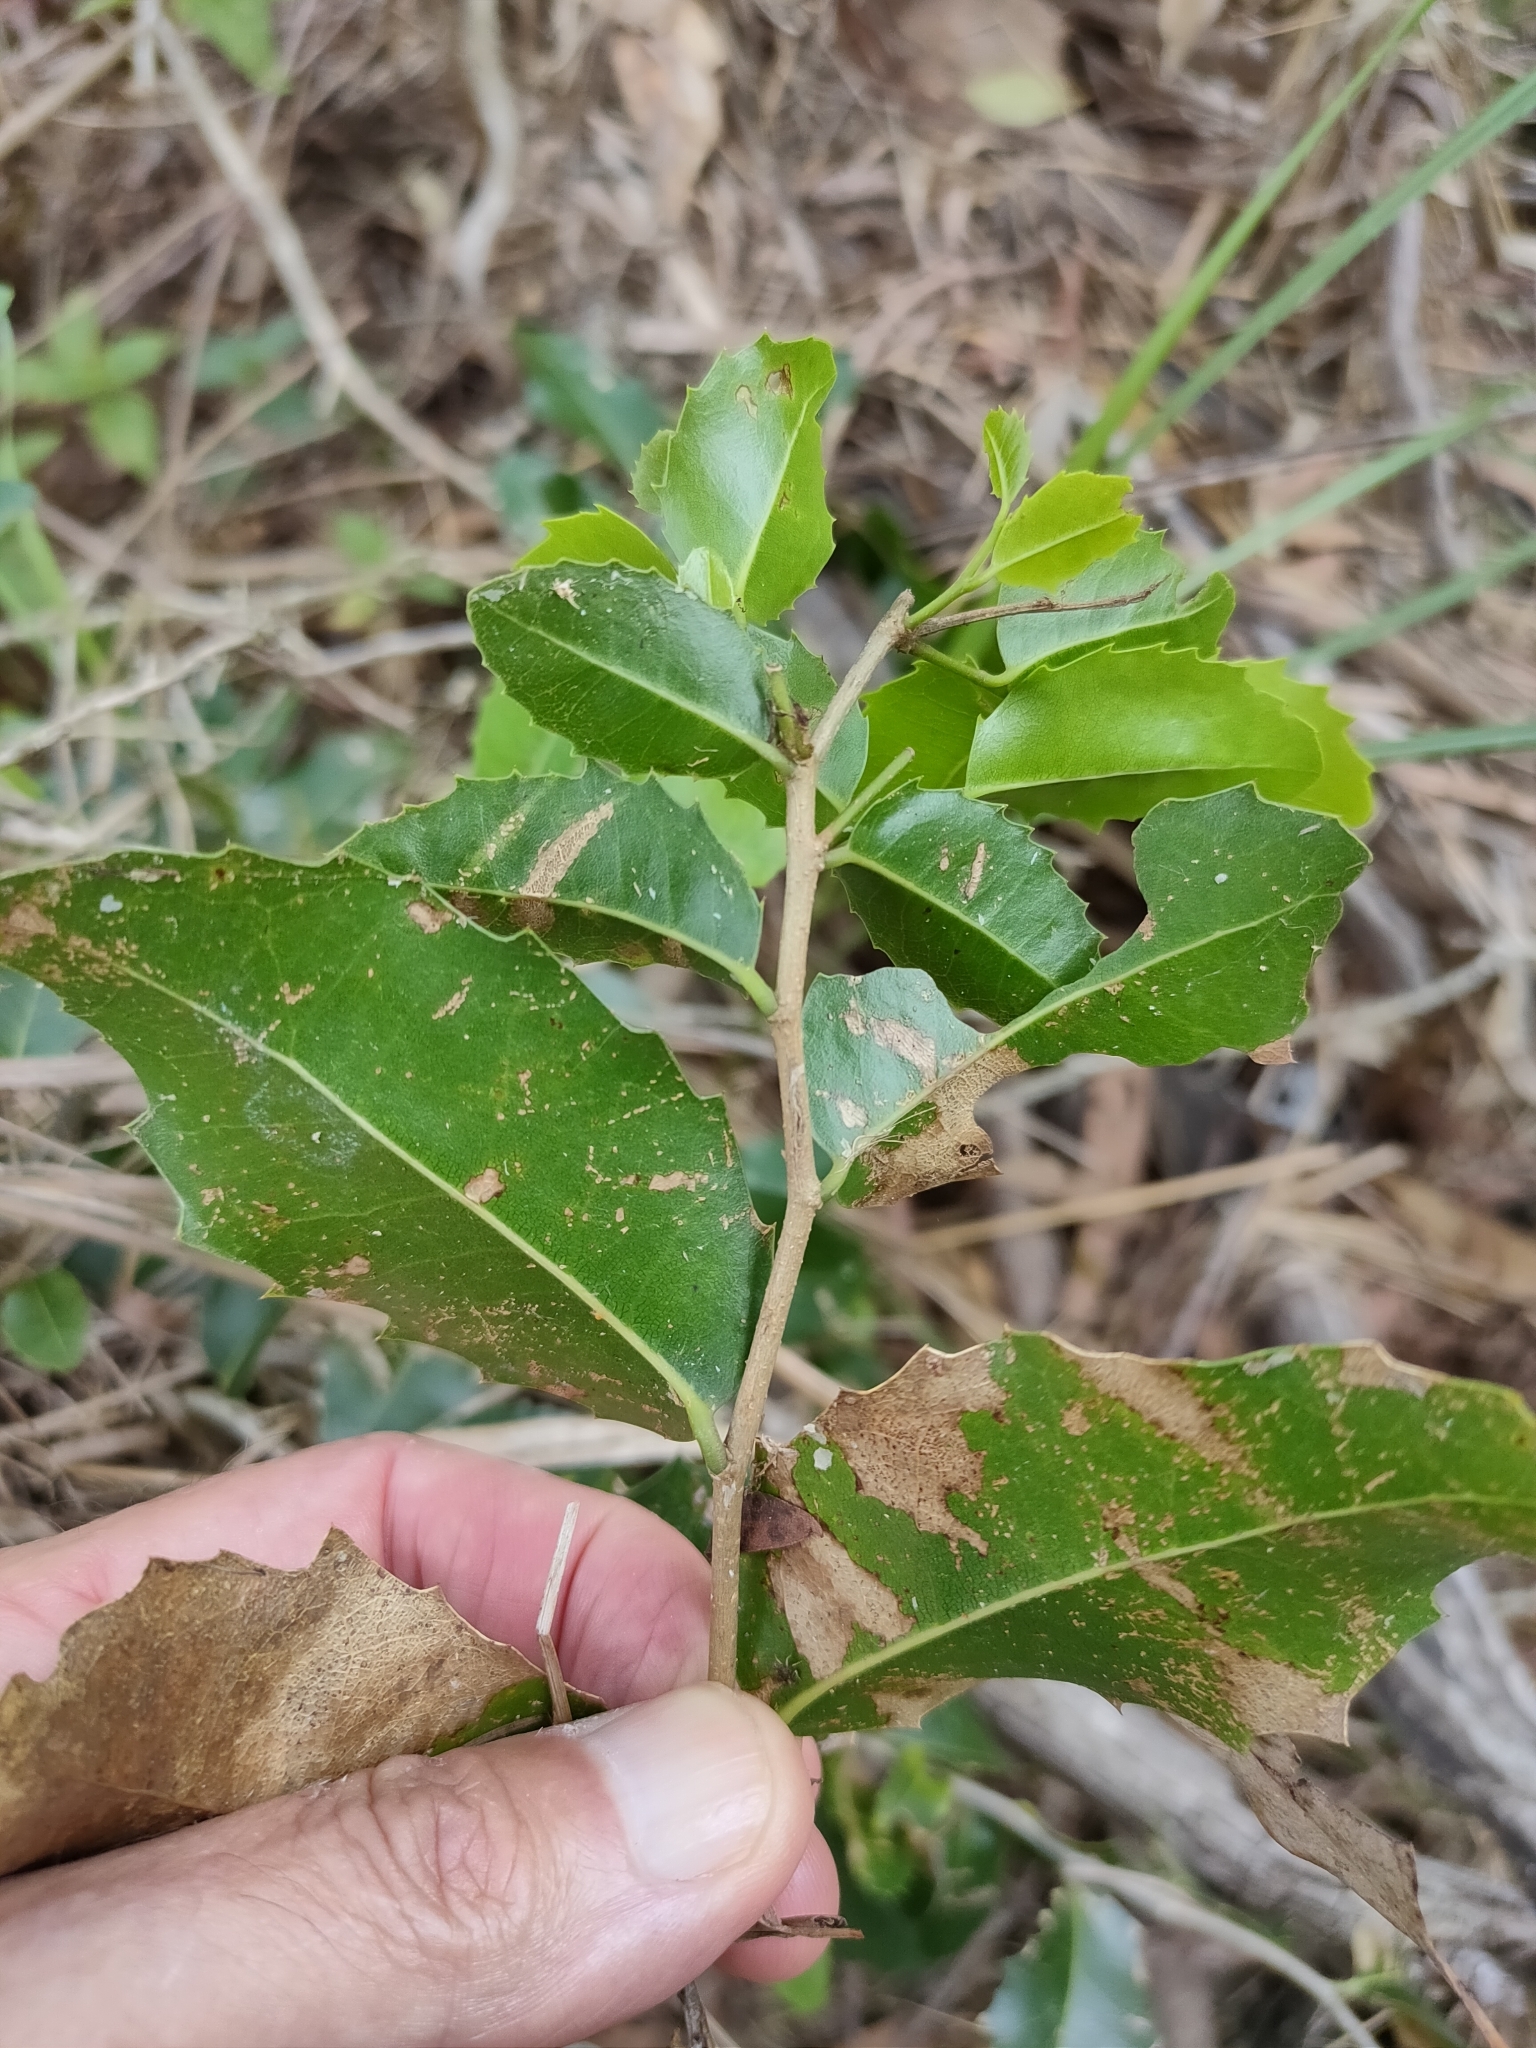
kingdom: Plantae
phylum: Tracheophyta
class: Magnoliopsida
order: Malpighiales
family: Putranjivaceae
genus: Drypetes
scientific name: Drypetes deplanchei
